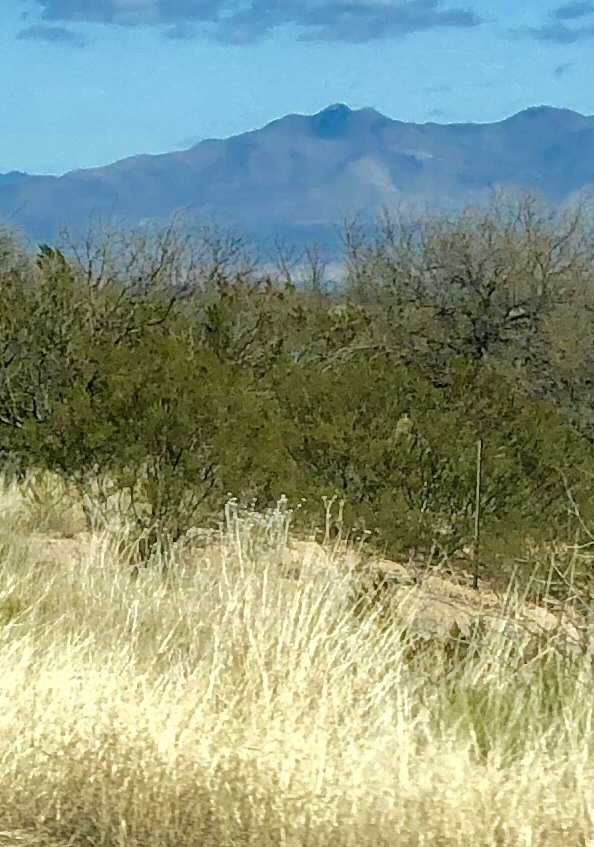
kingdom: Plantae
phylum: Tracheophyta
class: Magnoliopsida
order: Zygophyllales
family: Zygophyllaceae
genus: Larrea
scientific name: Larrea tridentata
